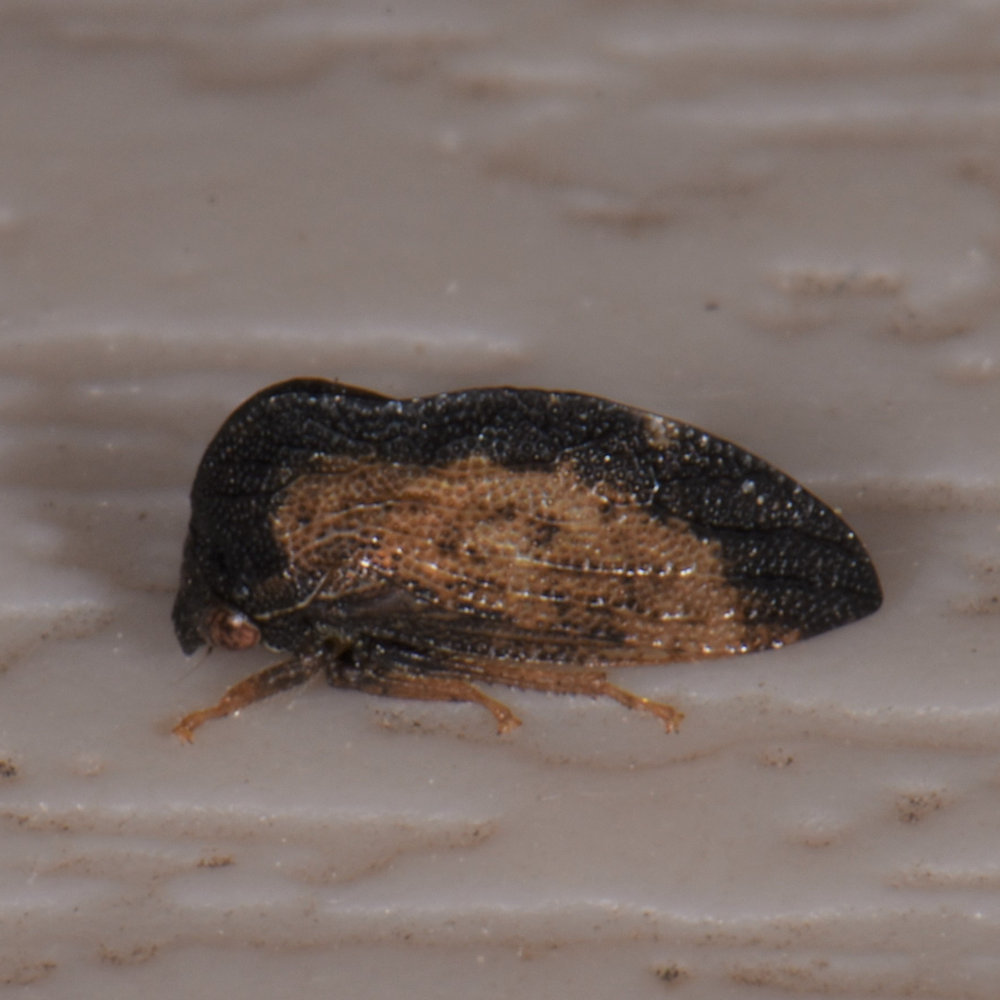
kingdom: Animalia
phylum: Arthropoda
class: Insecta
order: Hemiptera
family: Membracidae
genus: Publilia
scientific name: Publilia concava
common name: Aster treehopper
